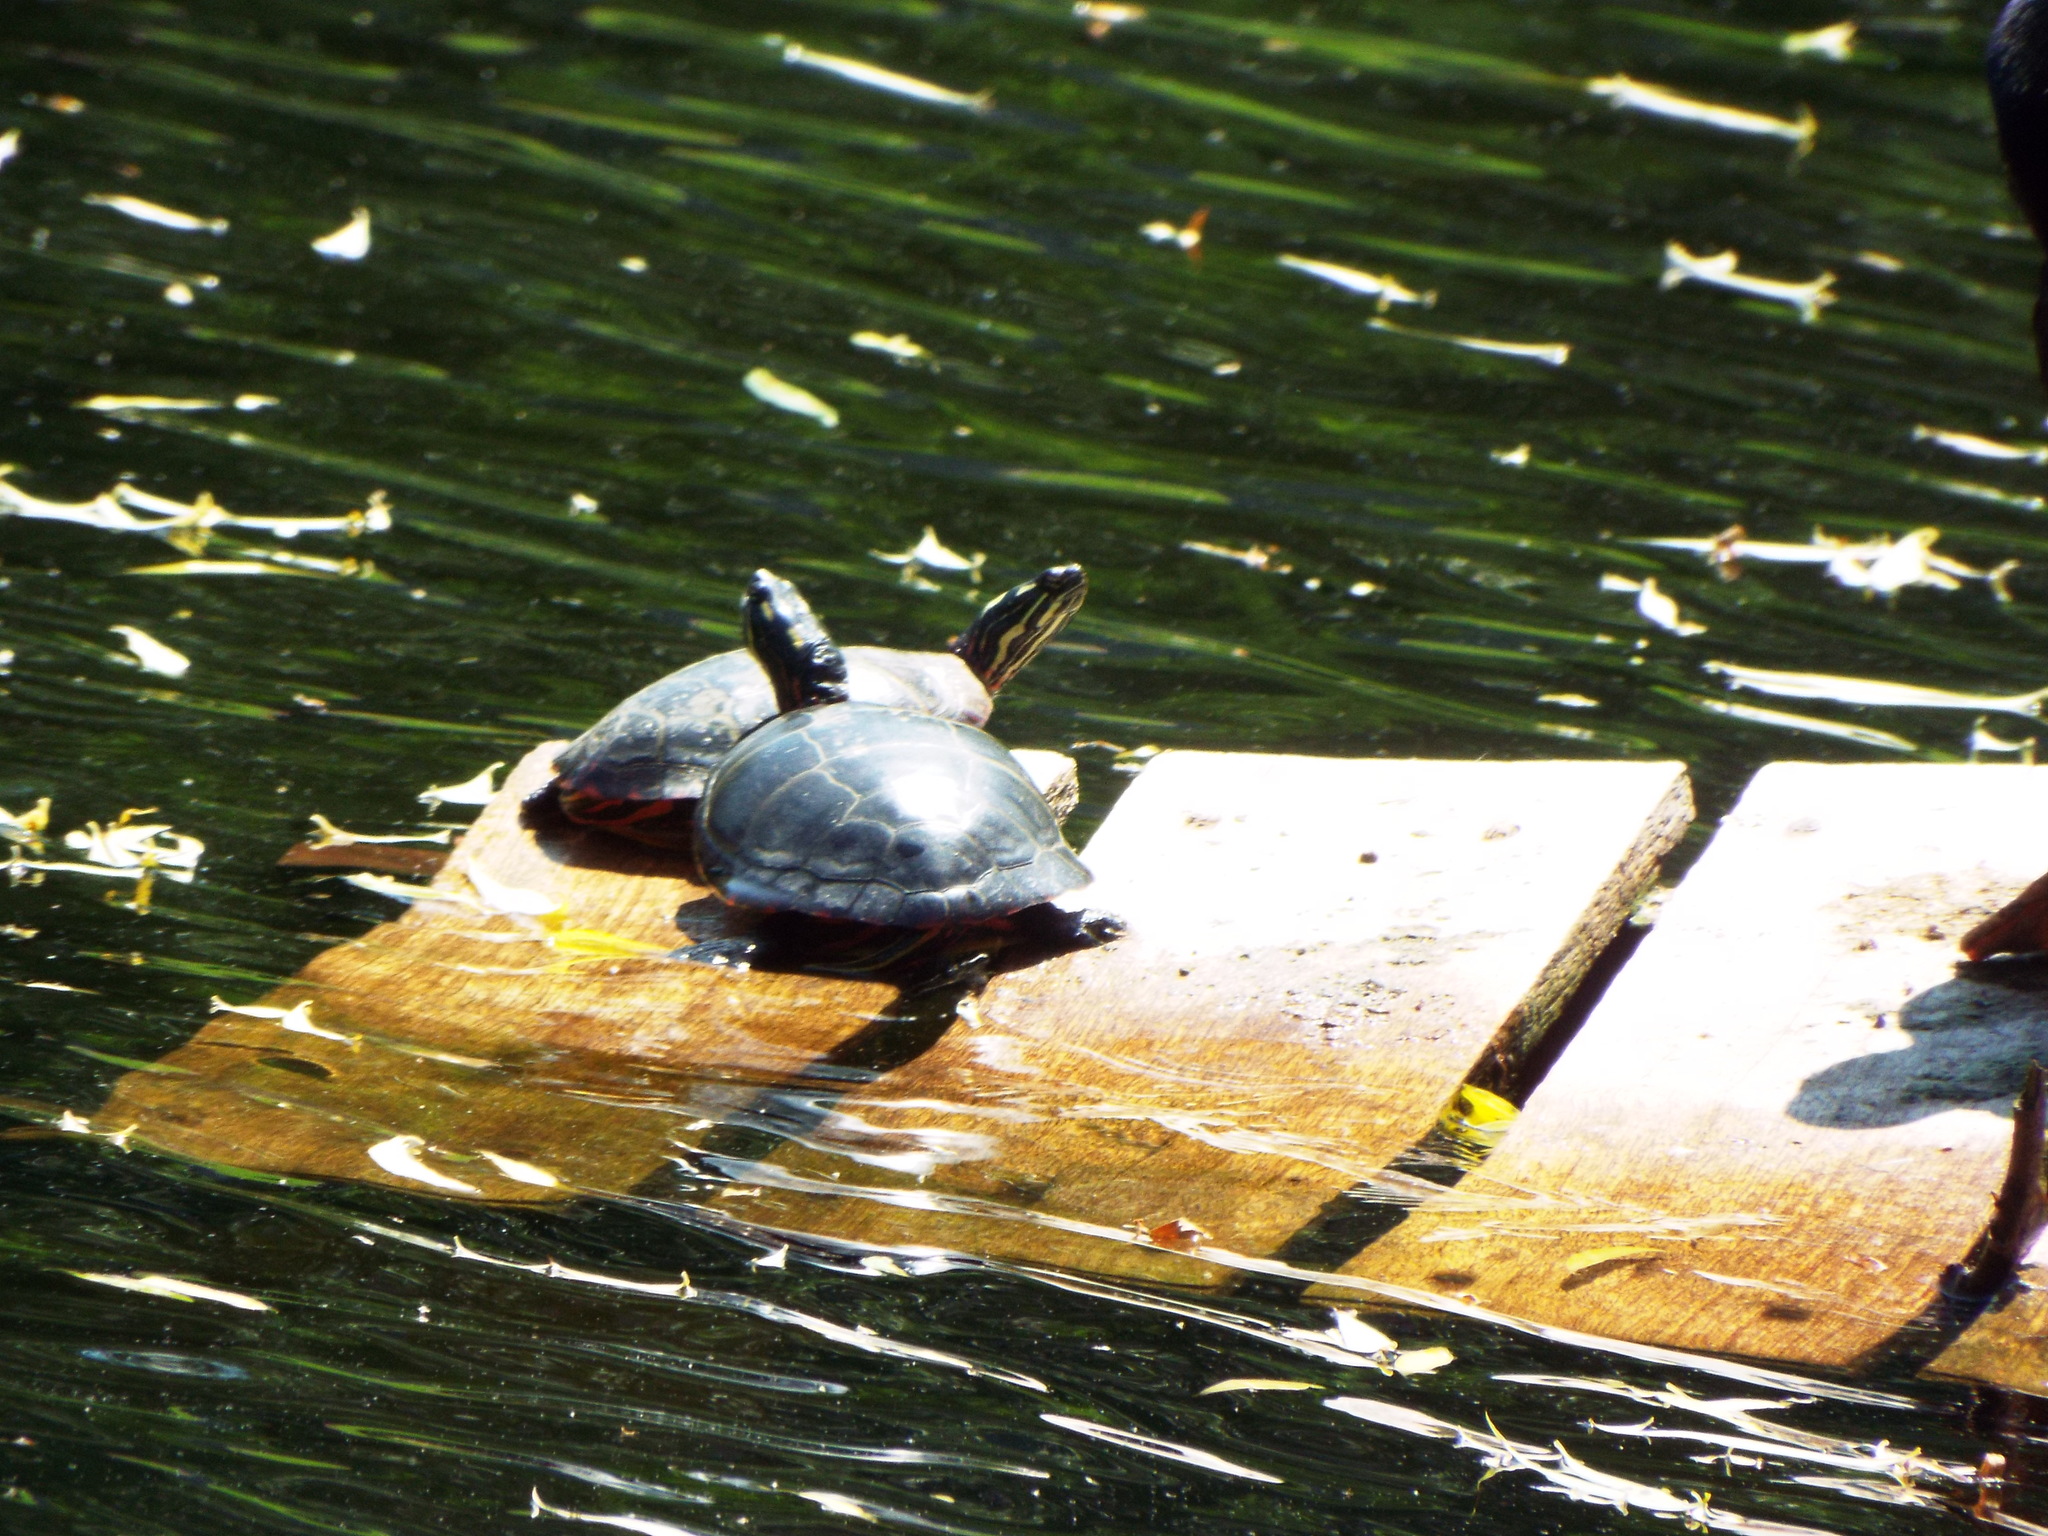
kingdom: Animalia
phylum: Chordata
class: Testudines
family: Emydidae
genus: Chrysemys
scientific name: Chrysemys picta
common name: Painted turtle
